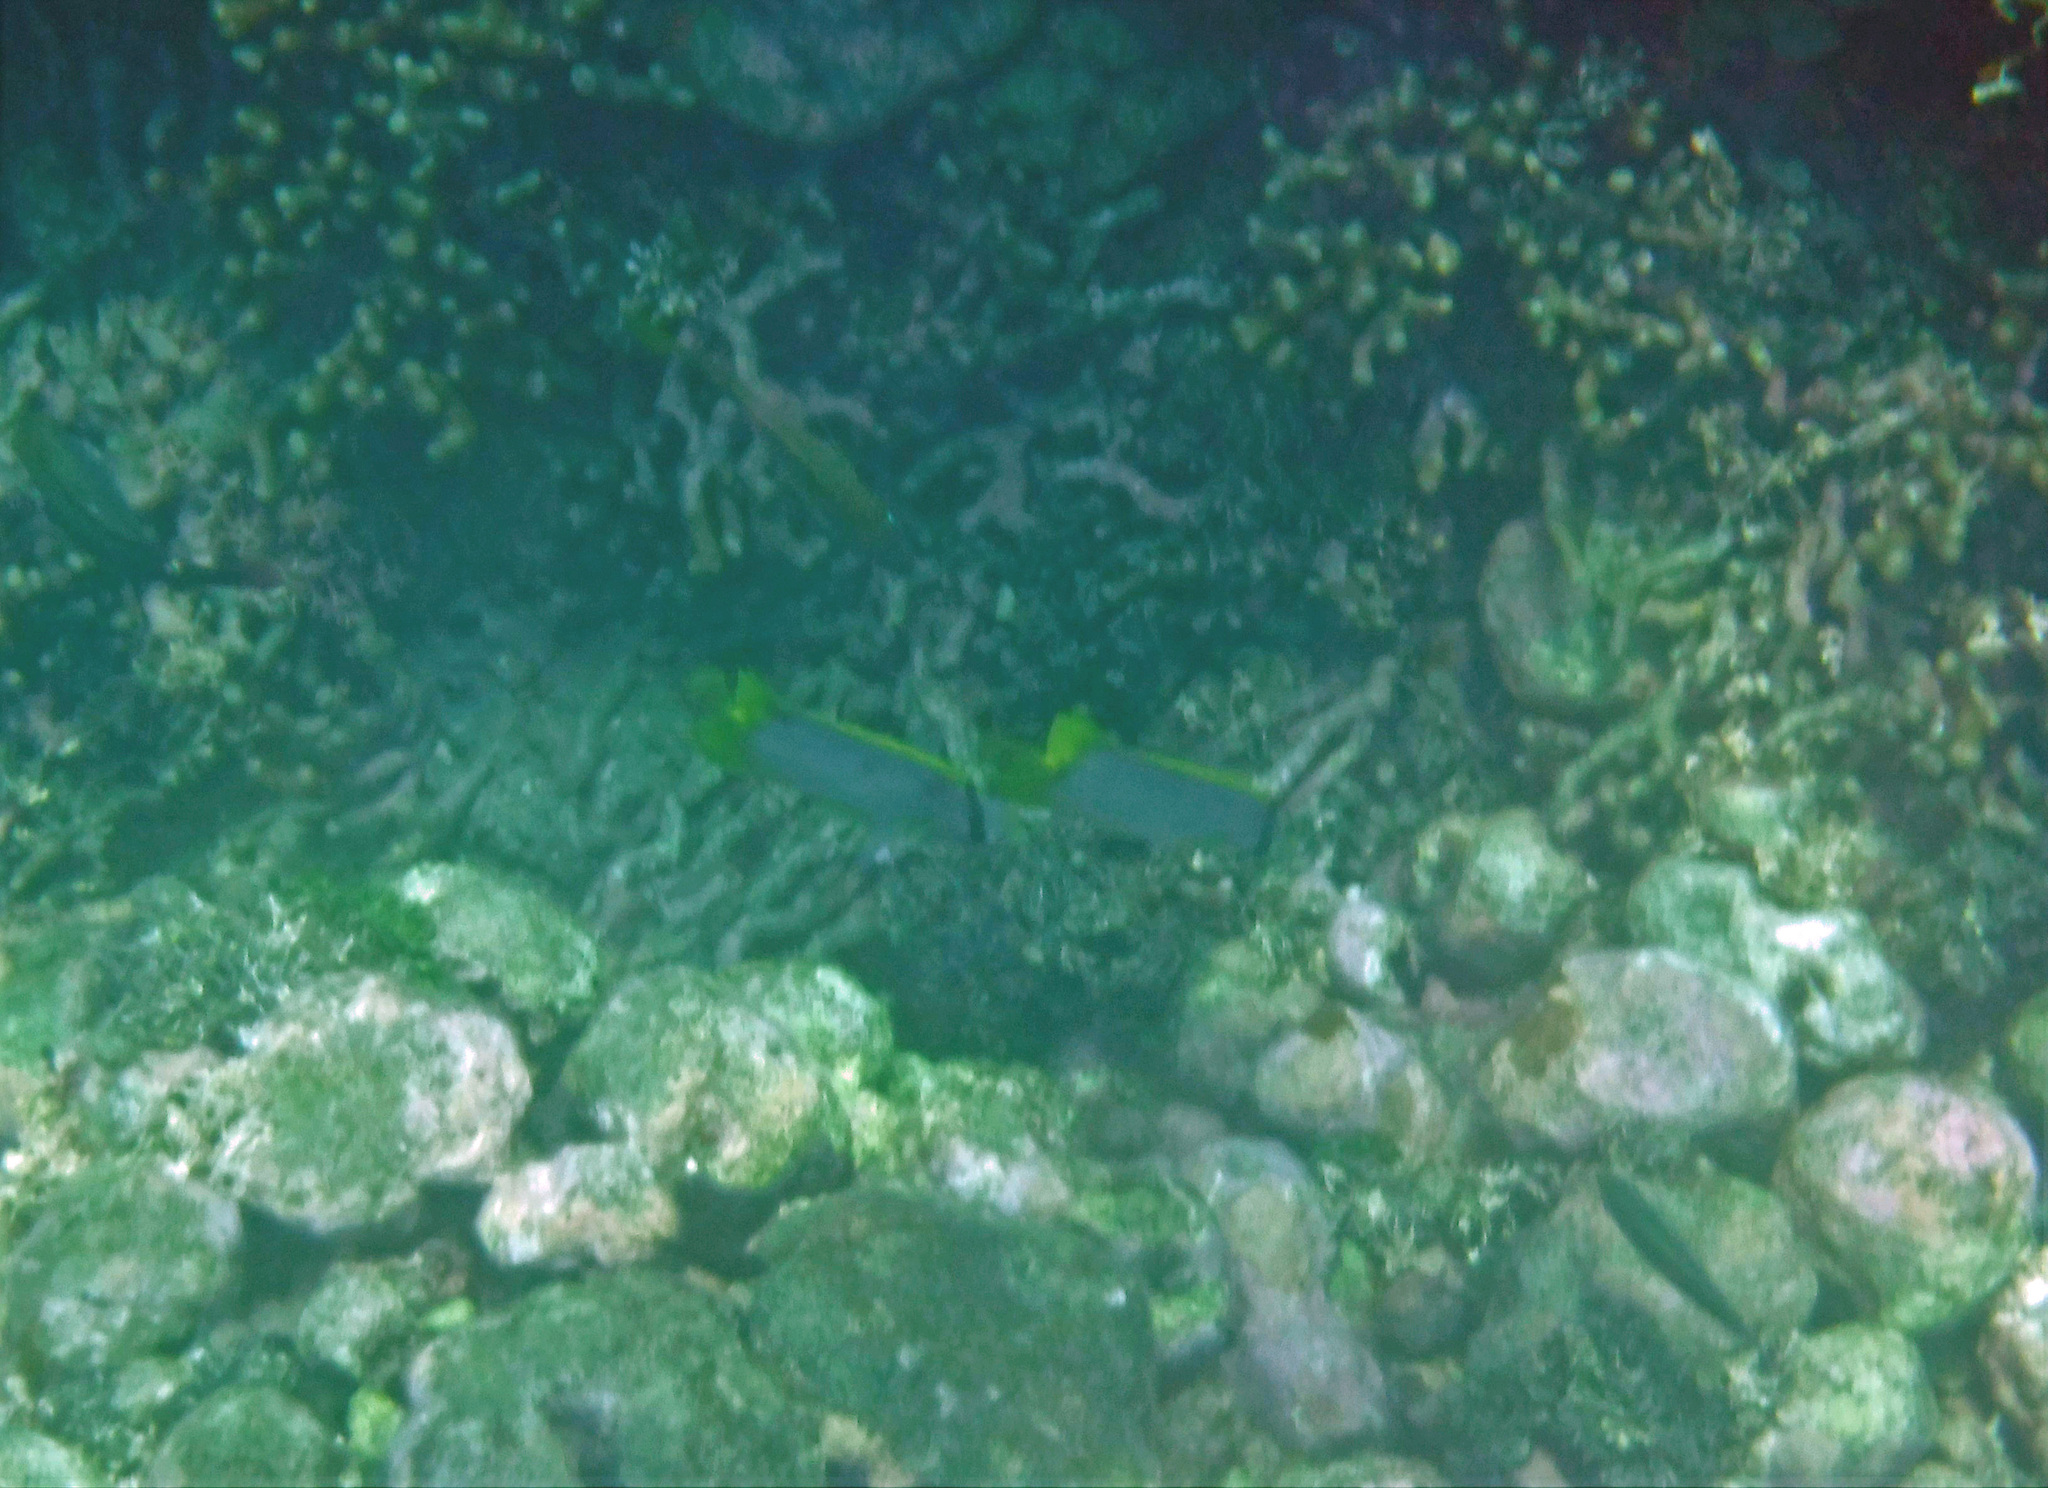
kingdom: Animalia
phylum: Chordata
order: Perciformes
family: Chaetodontidae
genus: Chaetodon
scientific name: Chaetodon ocellatus
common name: Spotfin butterflyfish
